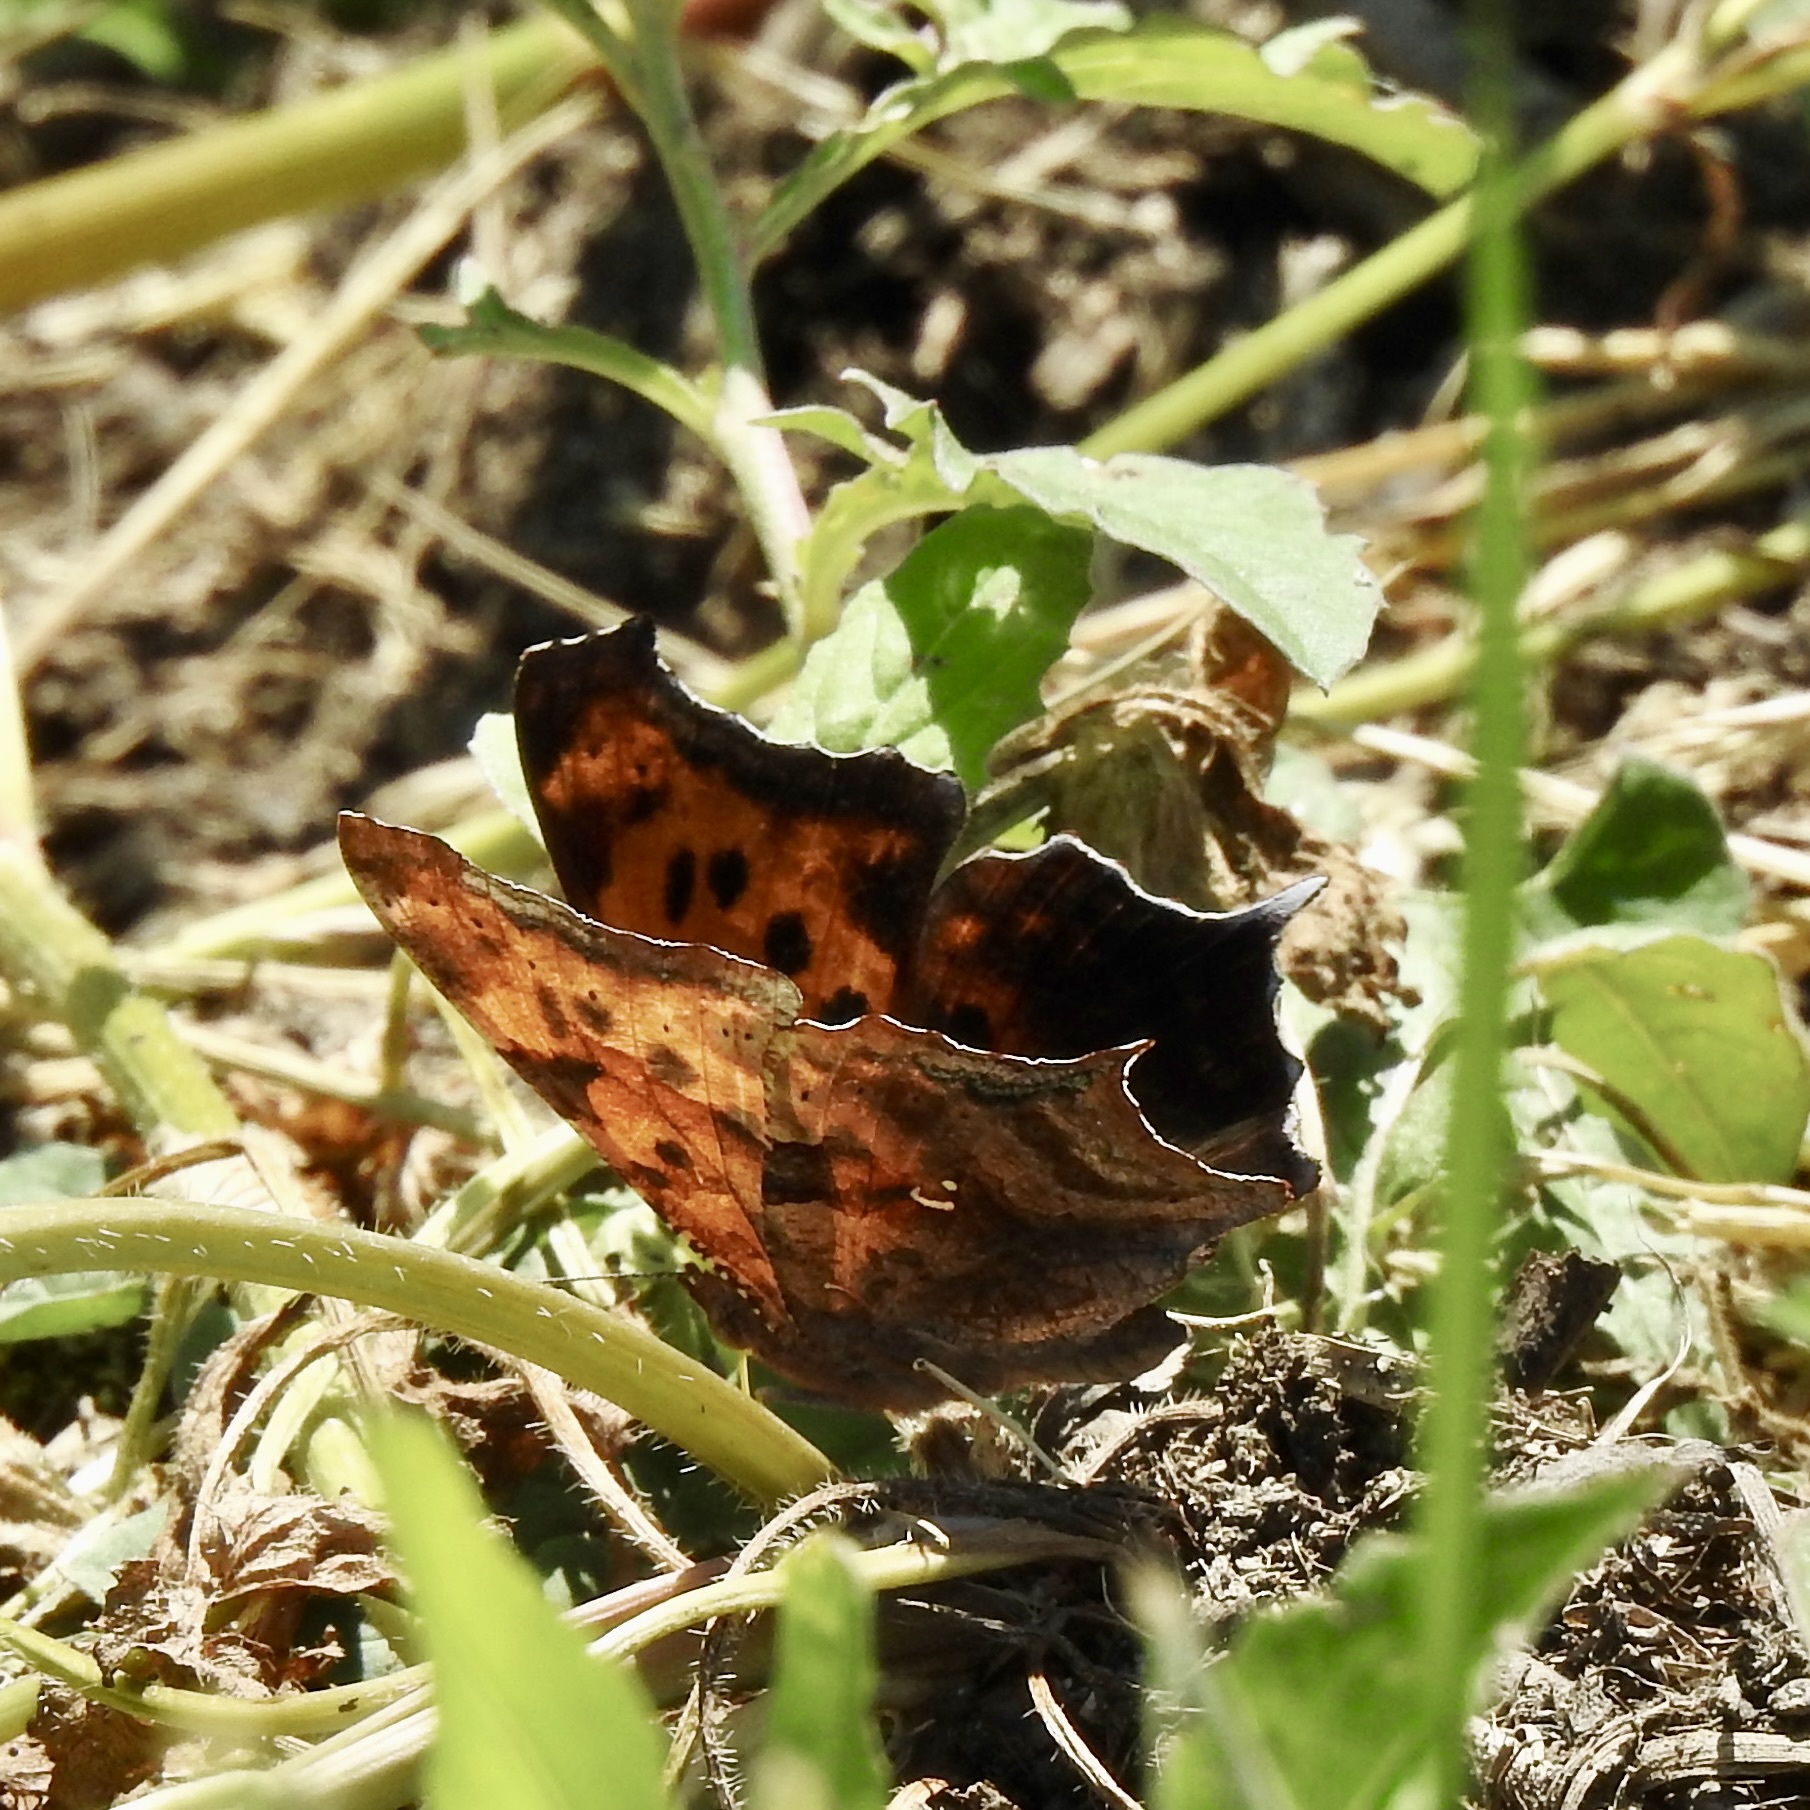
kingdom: Animalia
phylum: Arthropoda
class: Insecta
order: Lepidoptera
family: Nymphalidae
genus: Polygonia
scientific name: Polygonia interrogationis
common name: Question mark
